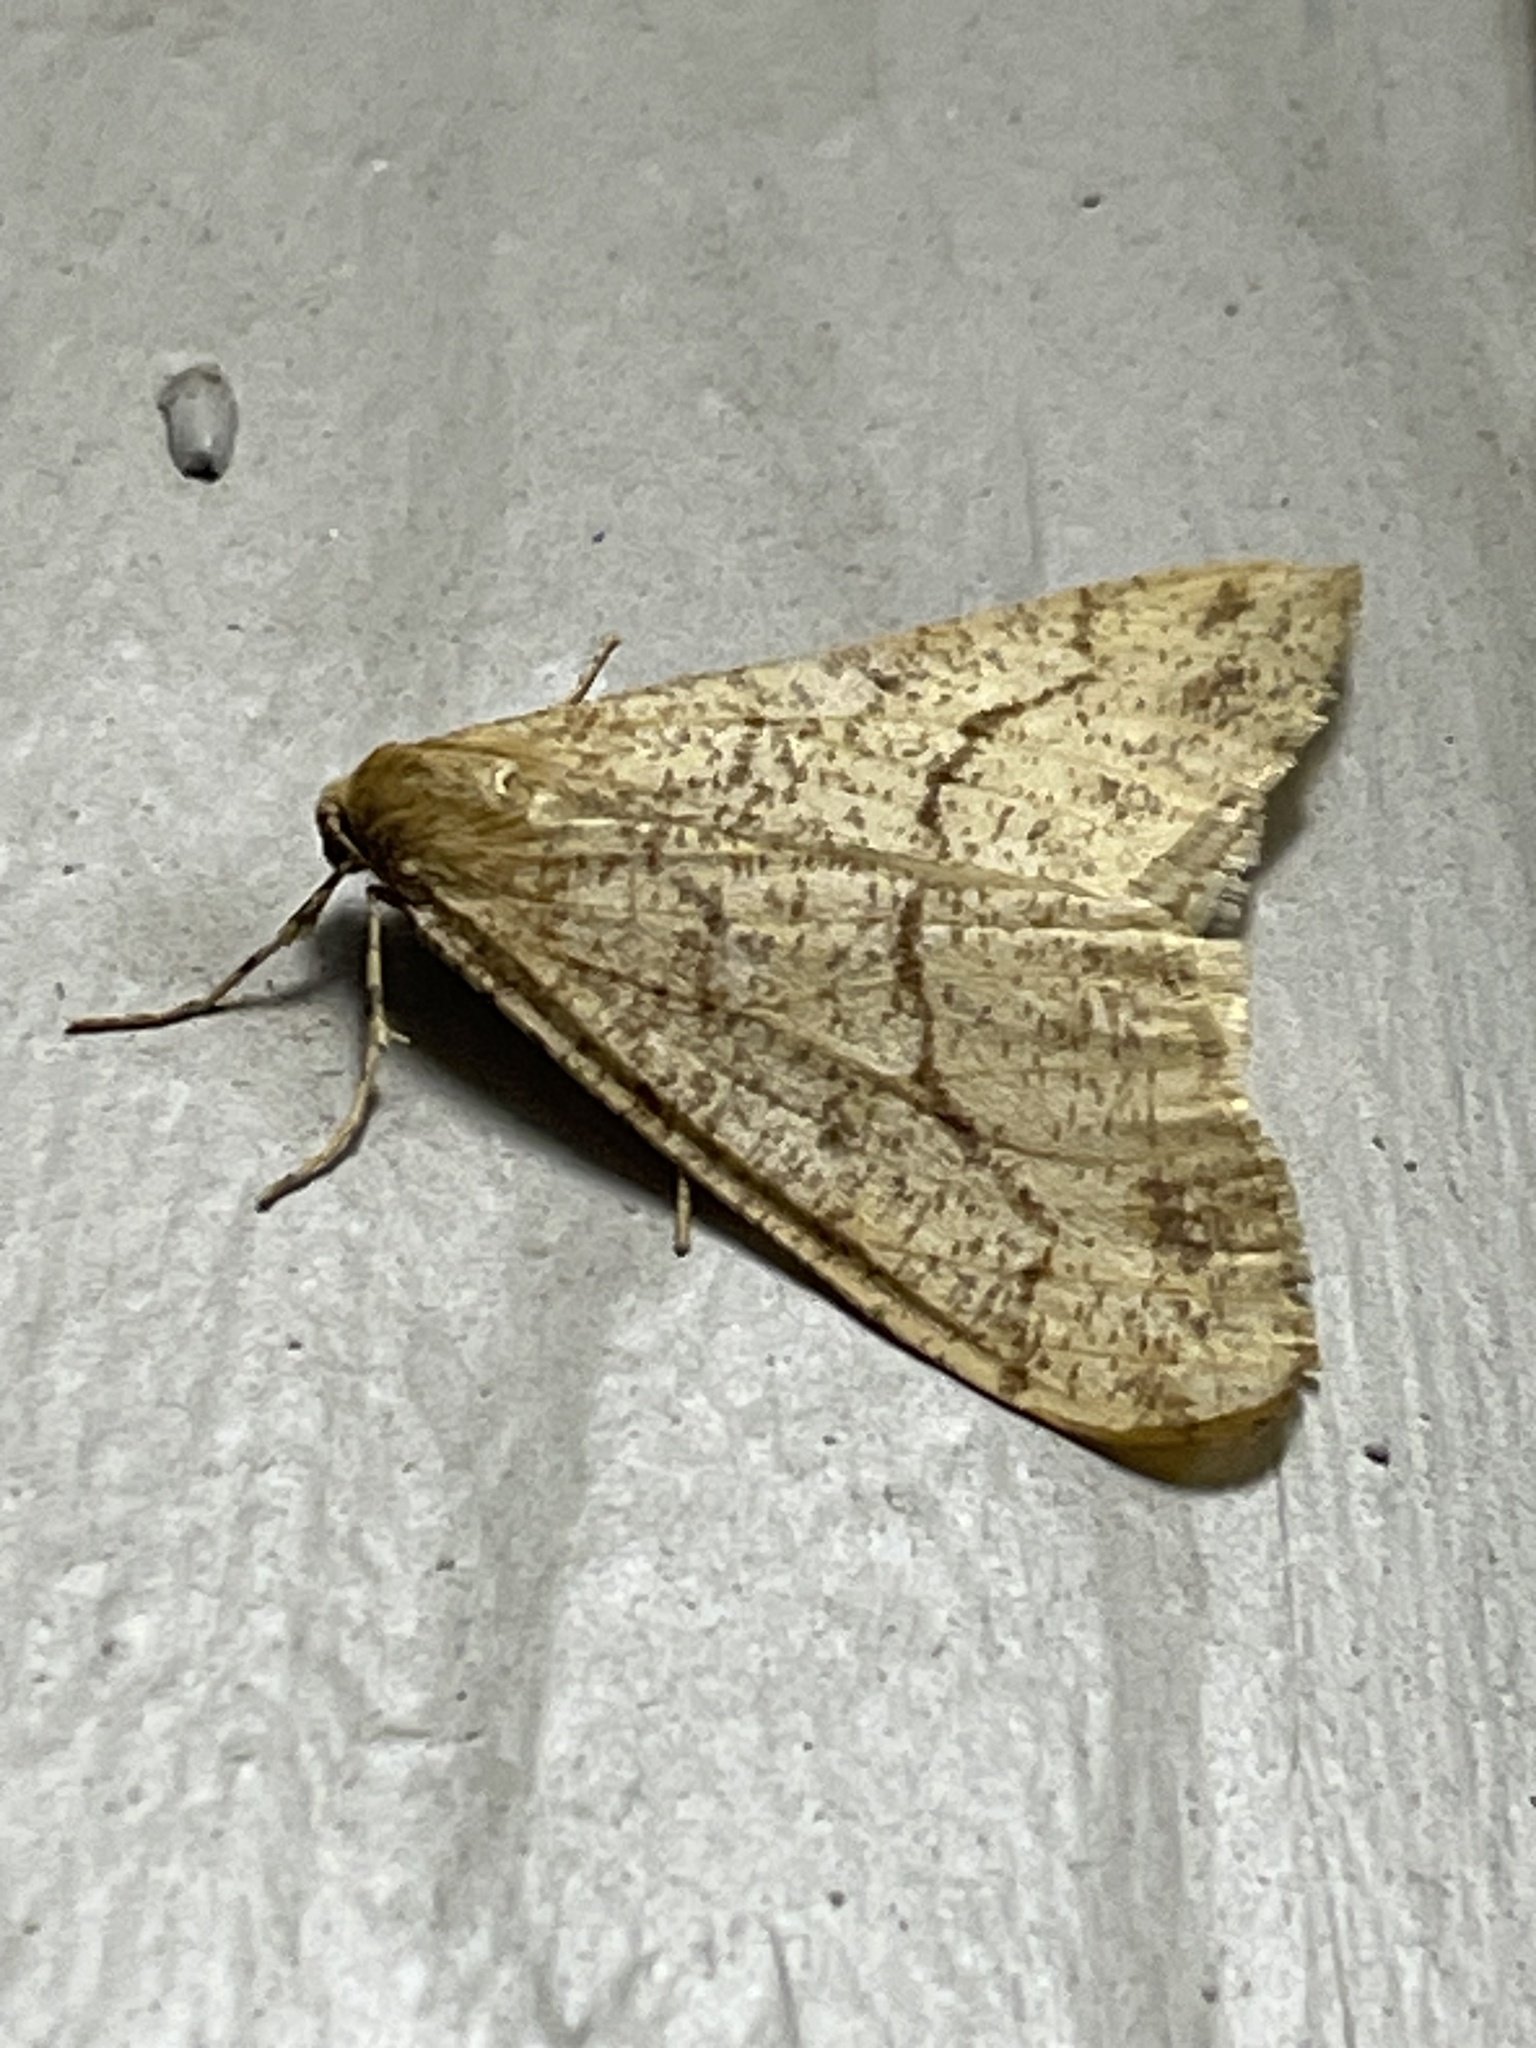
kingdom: Animalia
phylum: Arthropoda
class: Insecta
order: Lepidoptera
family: Geometridae
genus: Erannis
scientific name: Erannis tiliaria
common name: Linden looper
